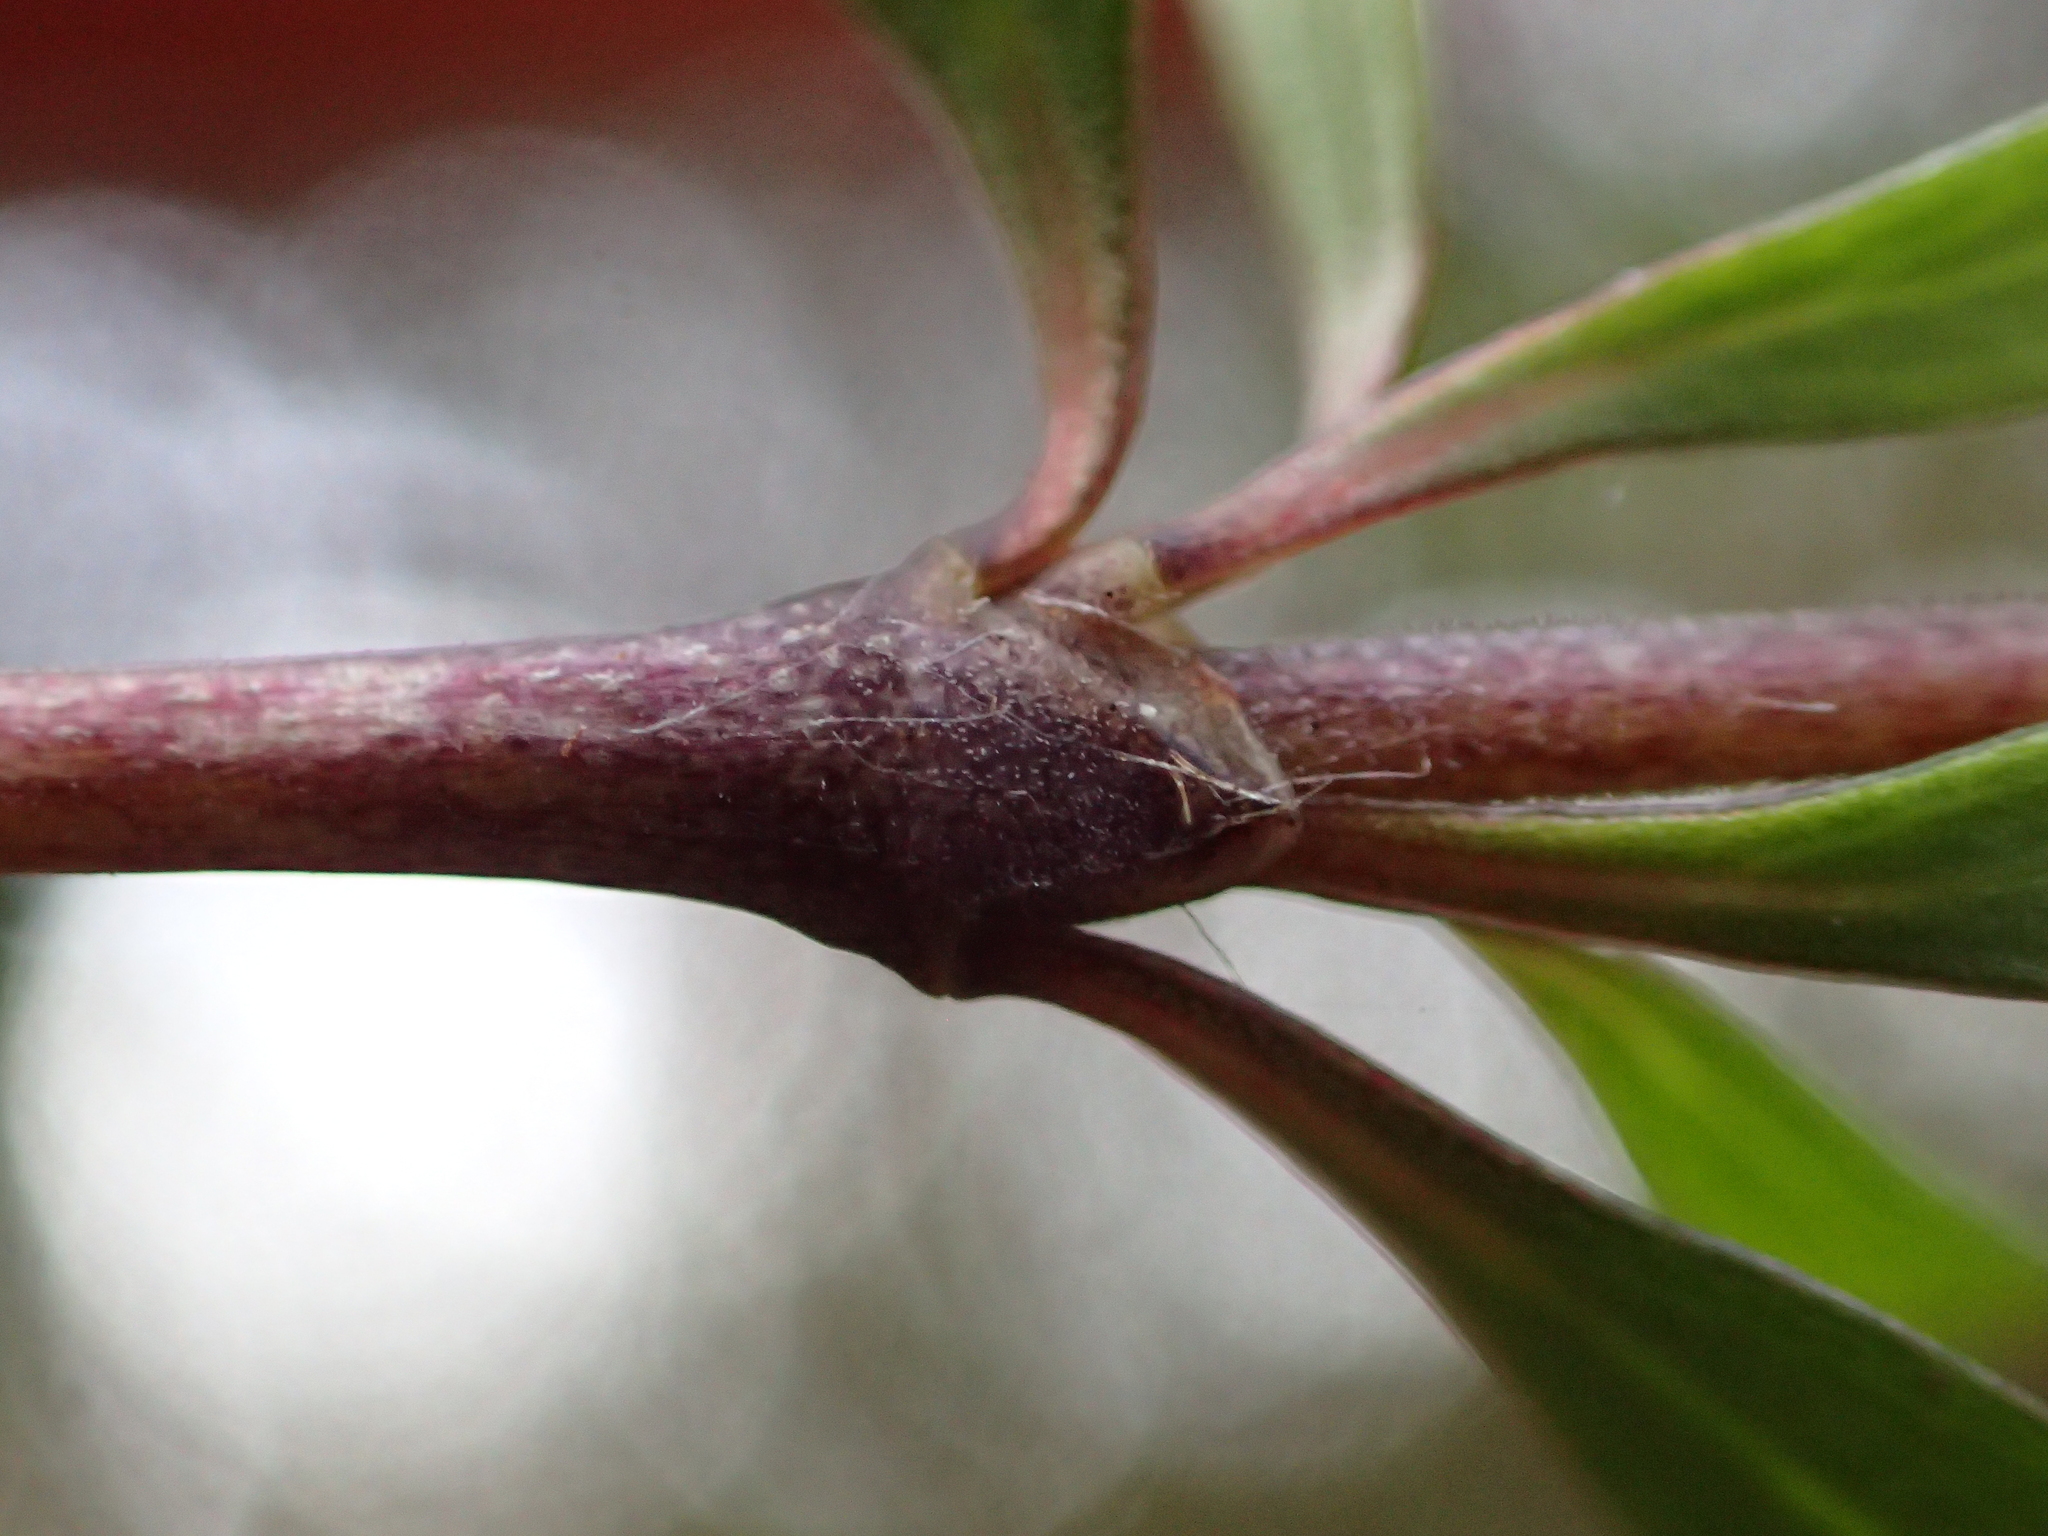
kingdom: Plantae
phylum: Tracheophyta
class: Magnoliopsida
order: Gentianales
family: Rubiaceae
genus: Coprosma
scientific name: Coprosma propinqua
